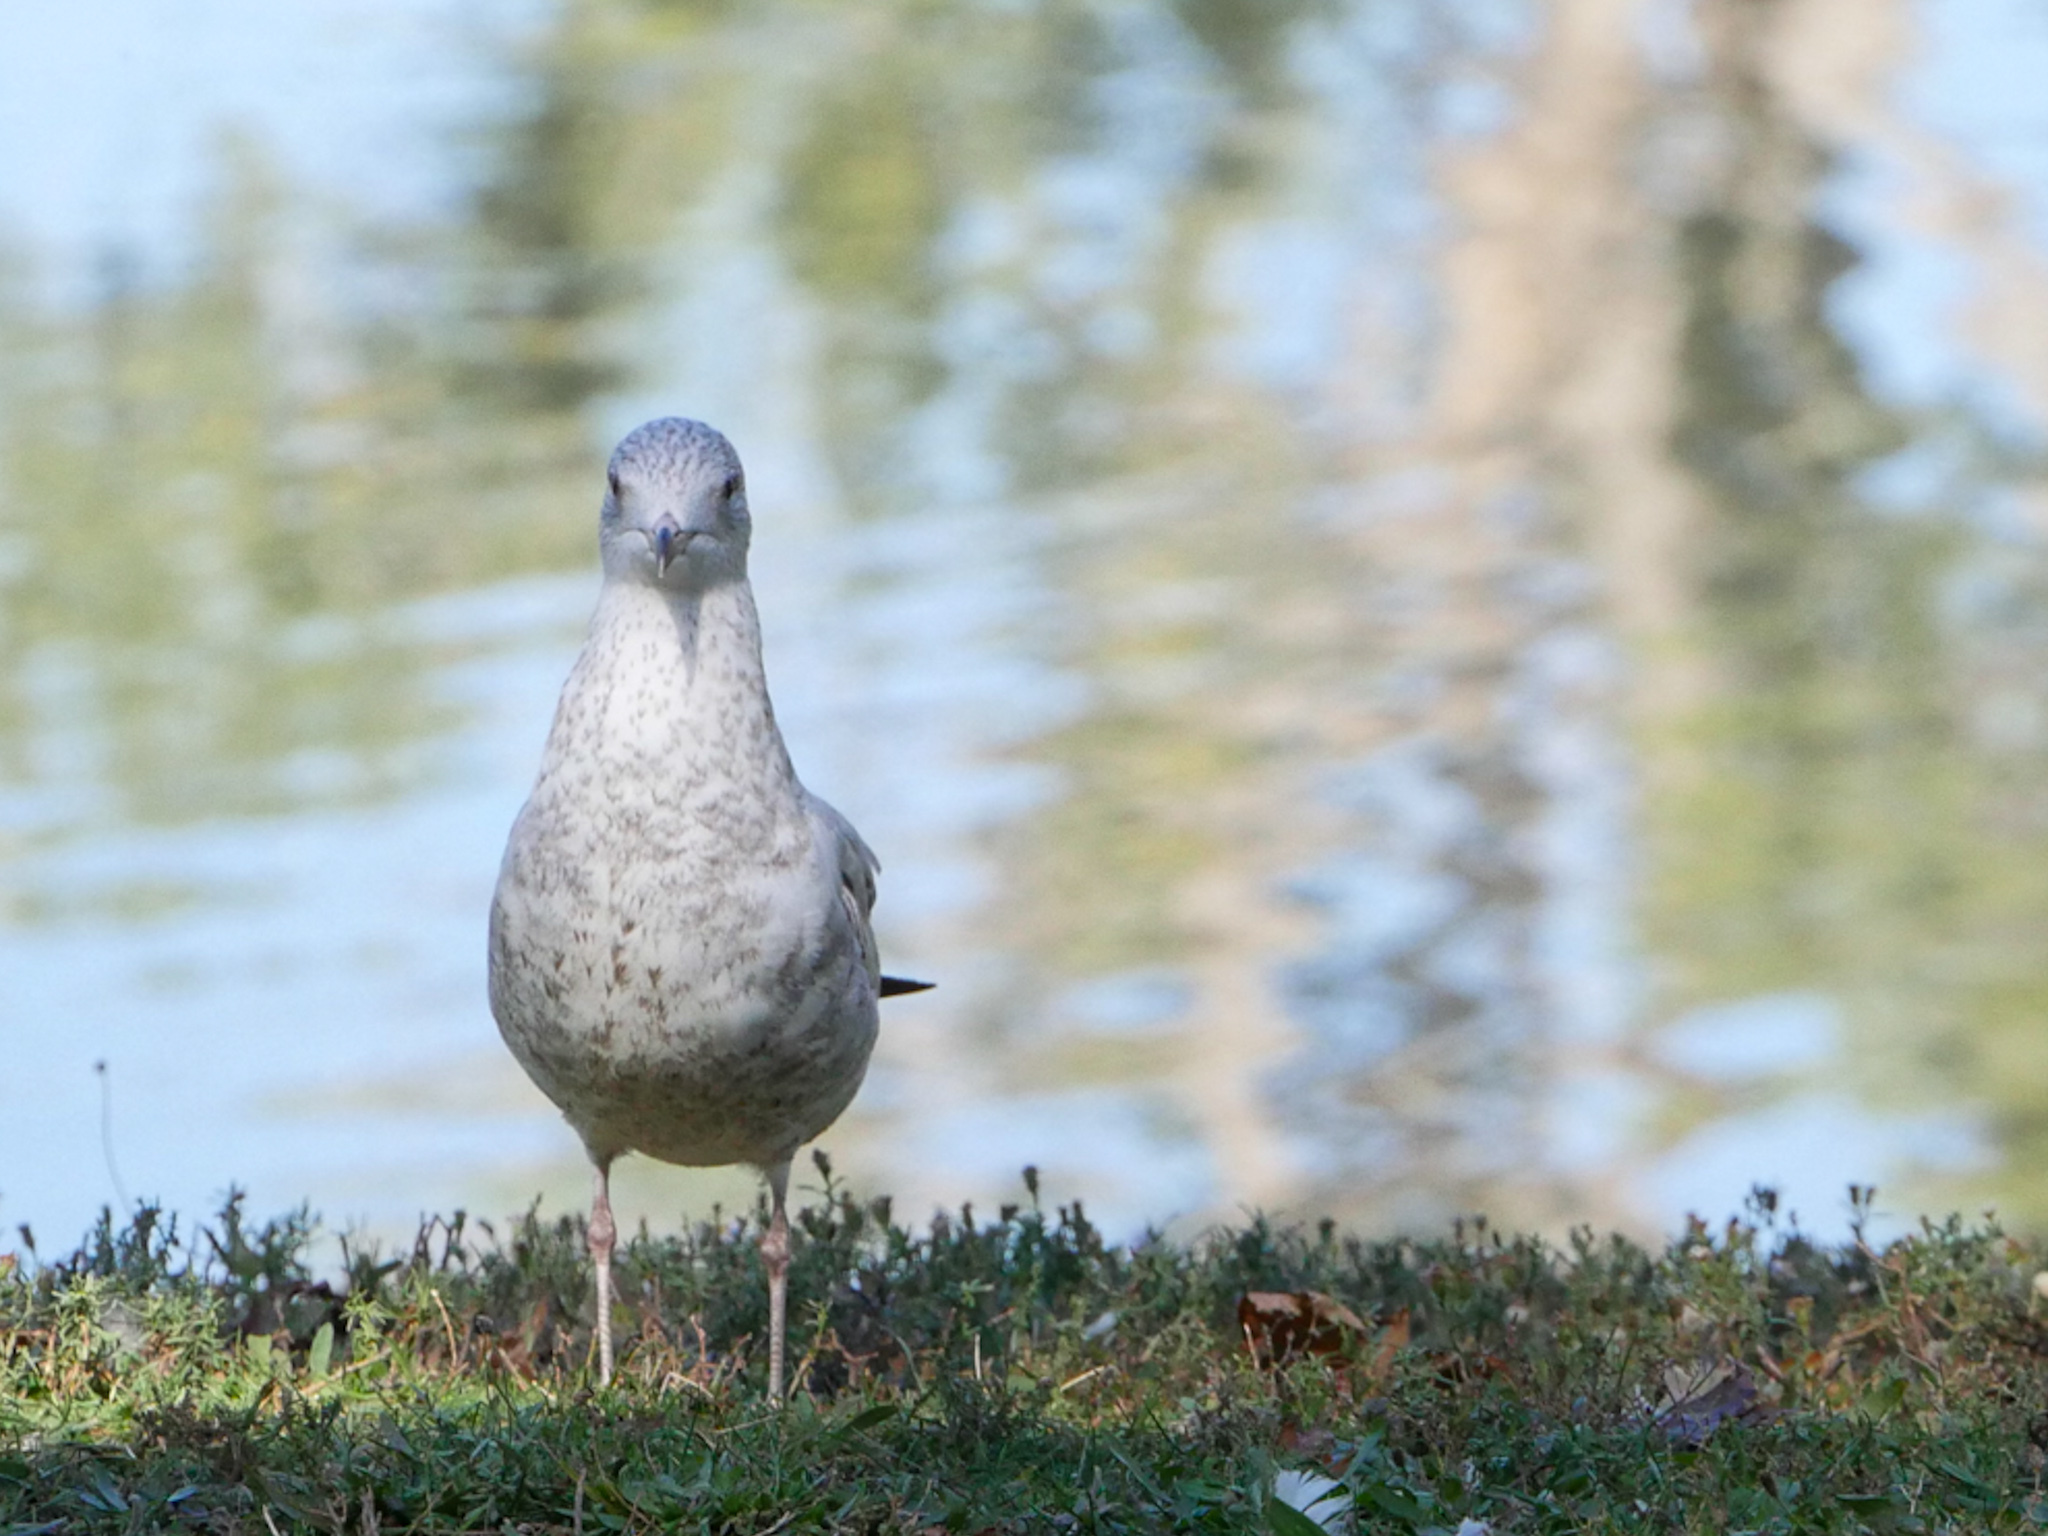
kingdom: Animalia
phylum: Chordata
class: Aves
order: Charadriiformes
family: Laridae
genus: Larus
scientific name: Larus delawarensis
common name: Ring-billed gull
